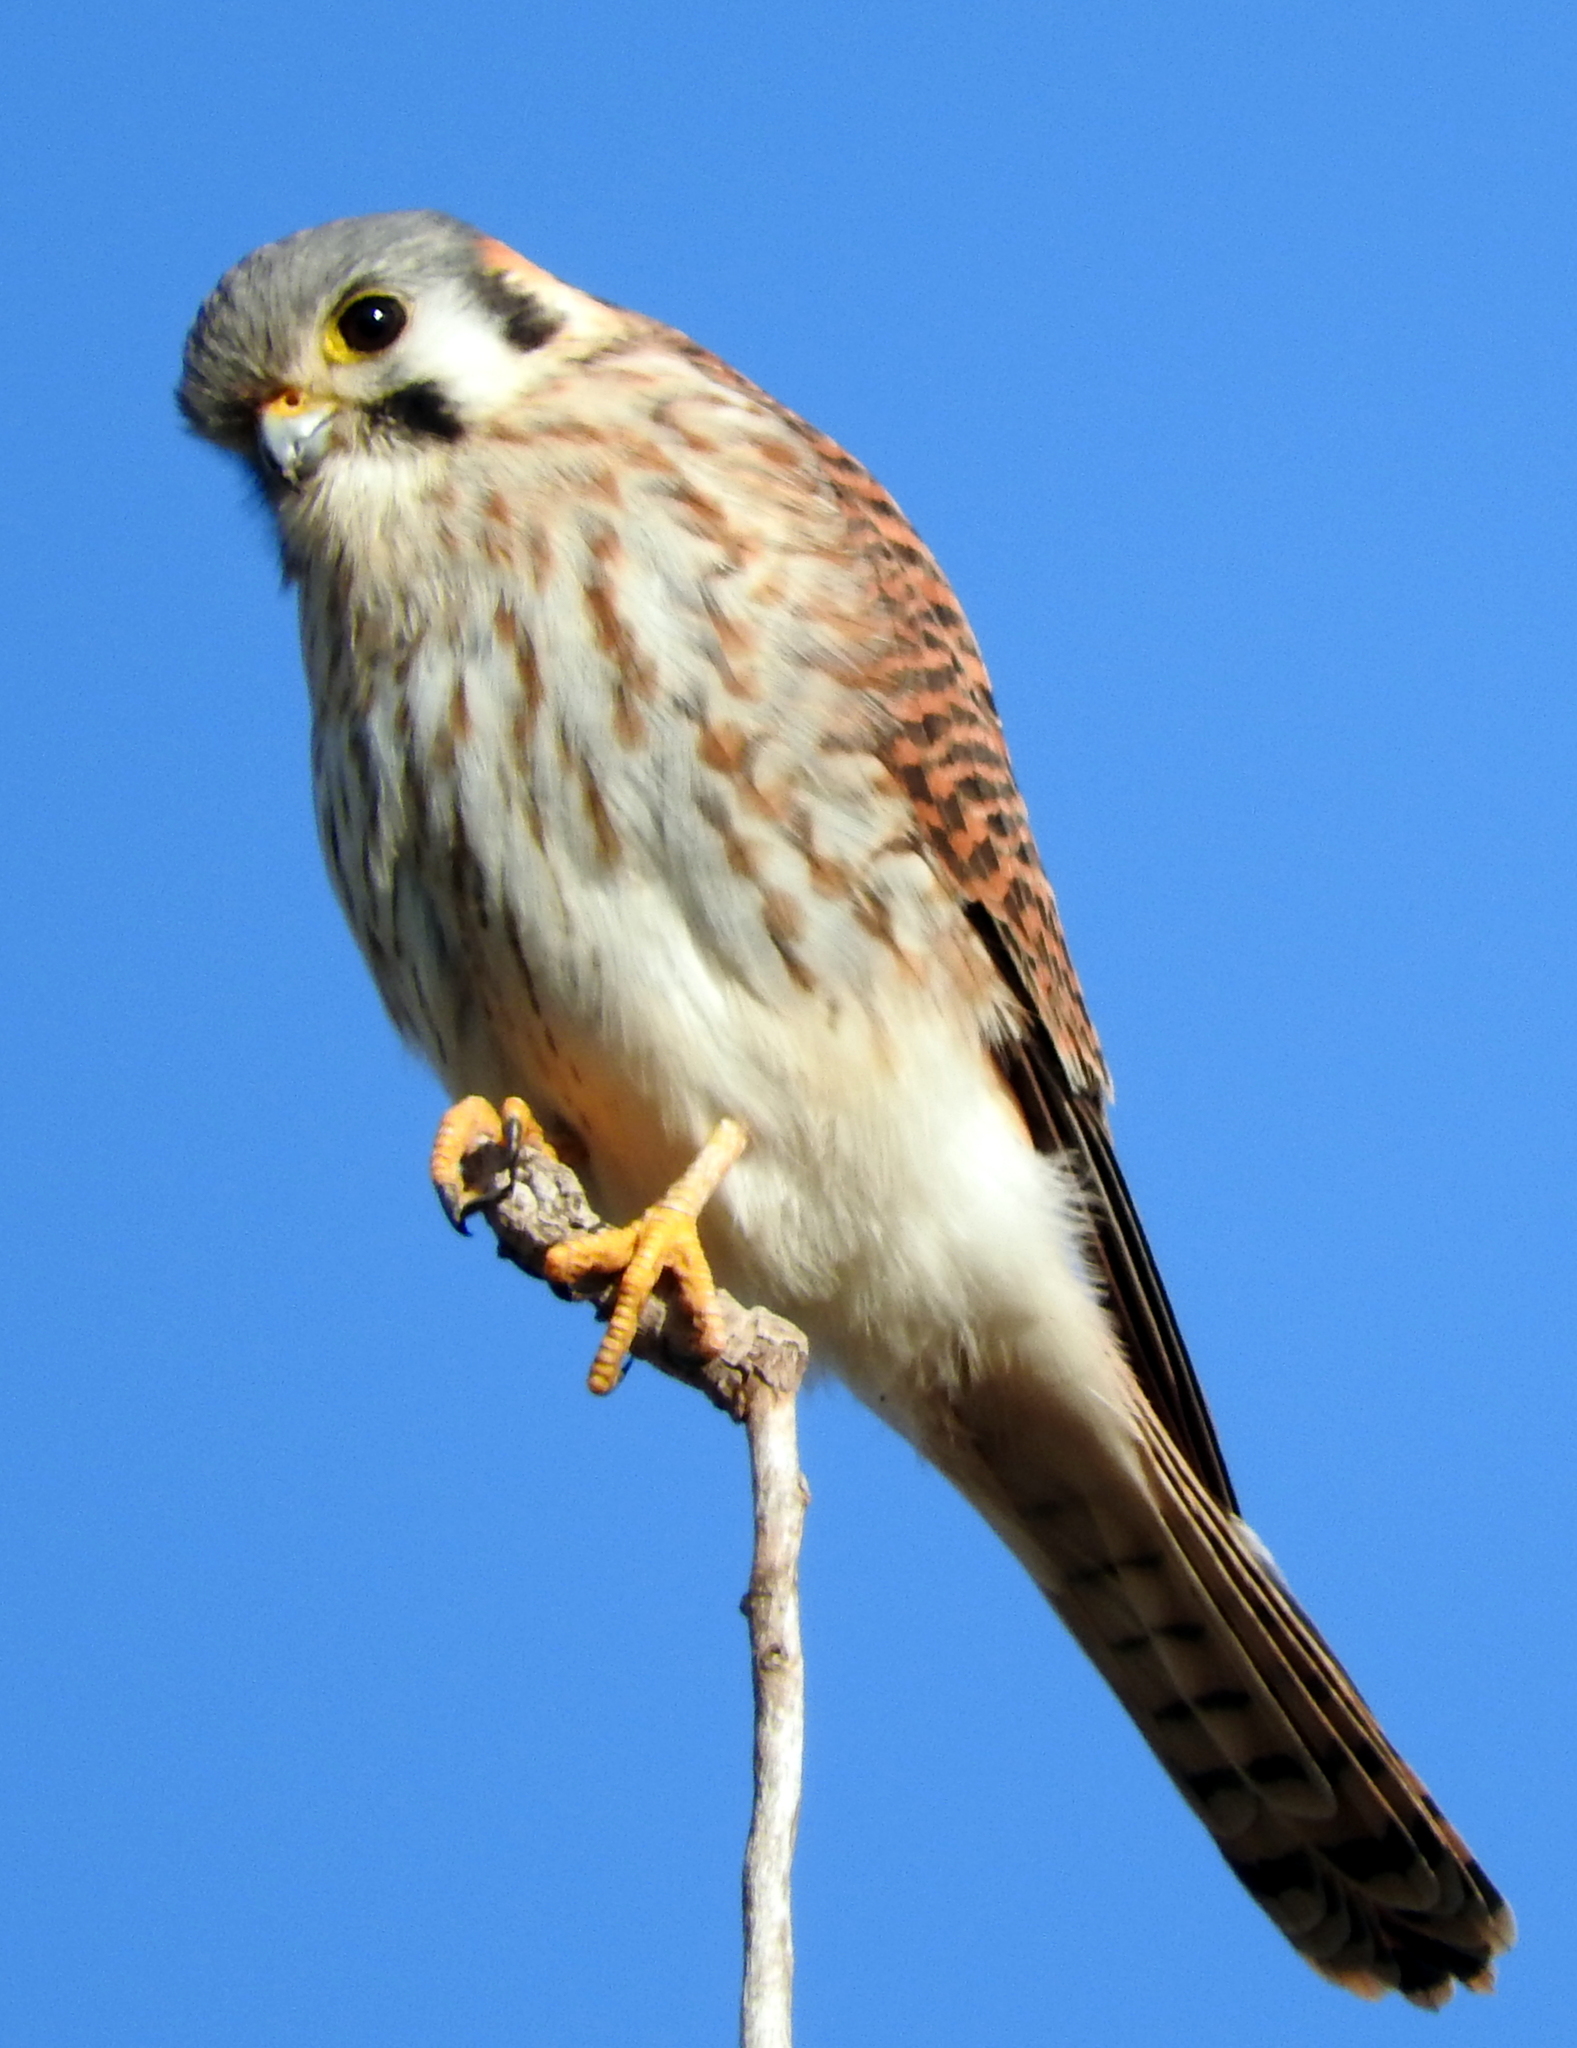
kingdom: Animalia
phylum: Chordata
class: Aves
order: Falconiformes
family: Falconidae
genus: Falco
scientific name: Falco sparverius
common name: American kestrel
